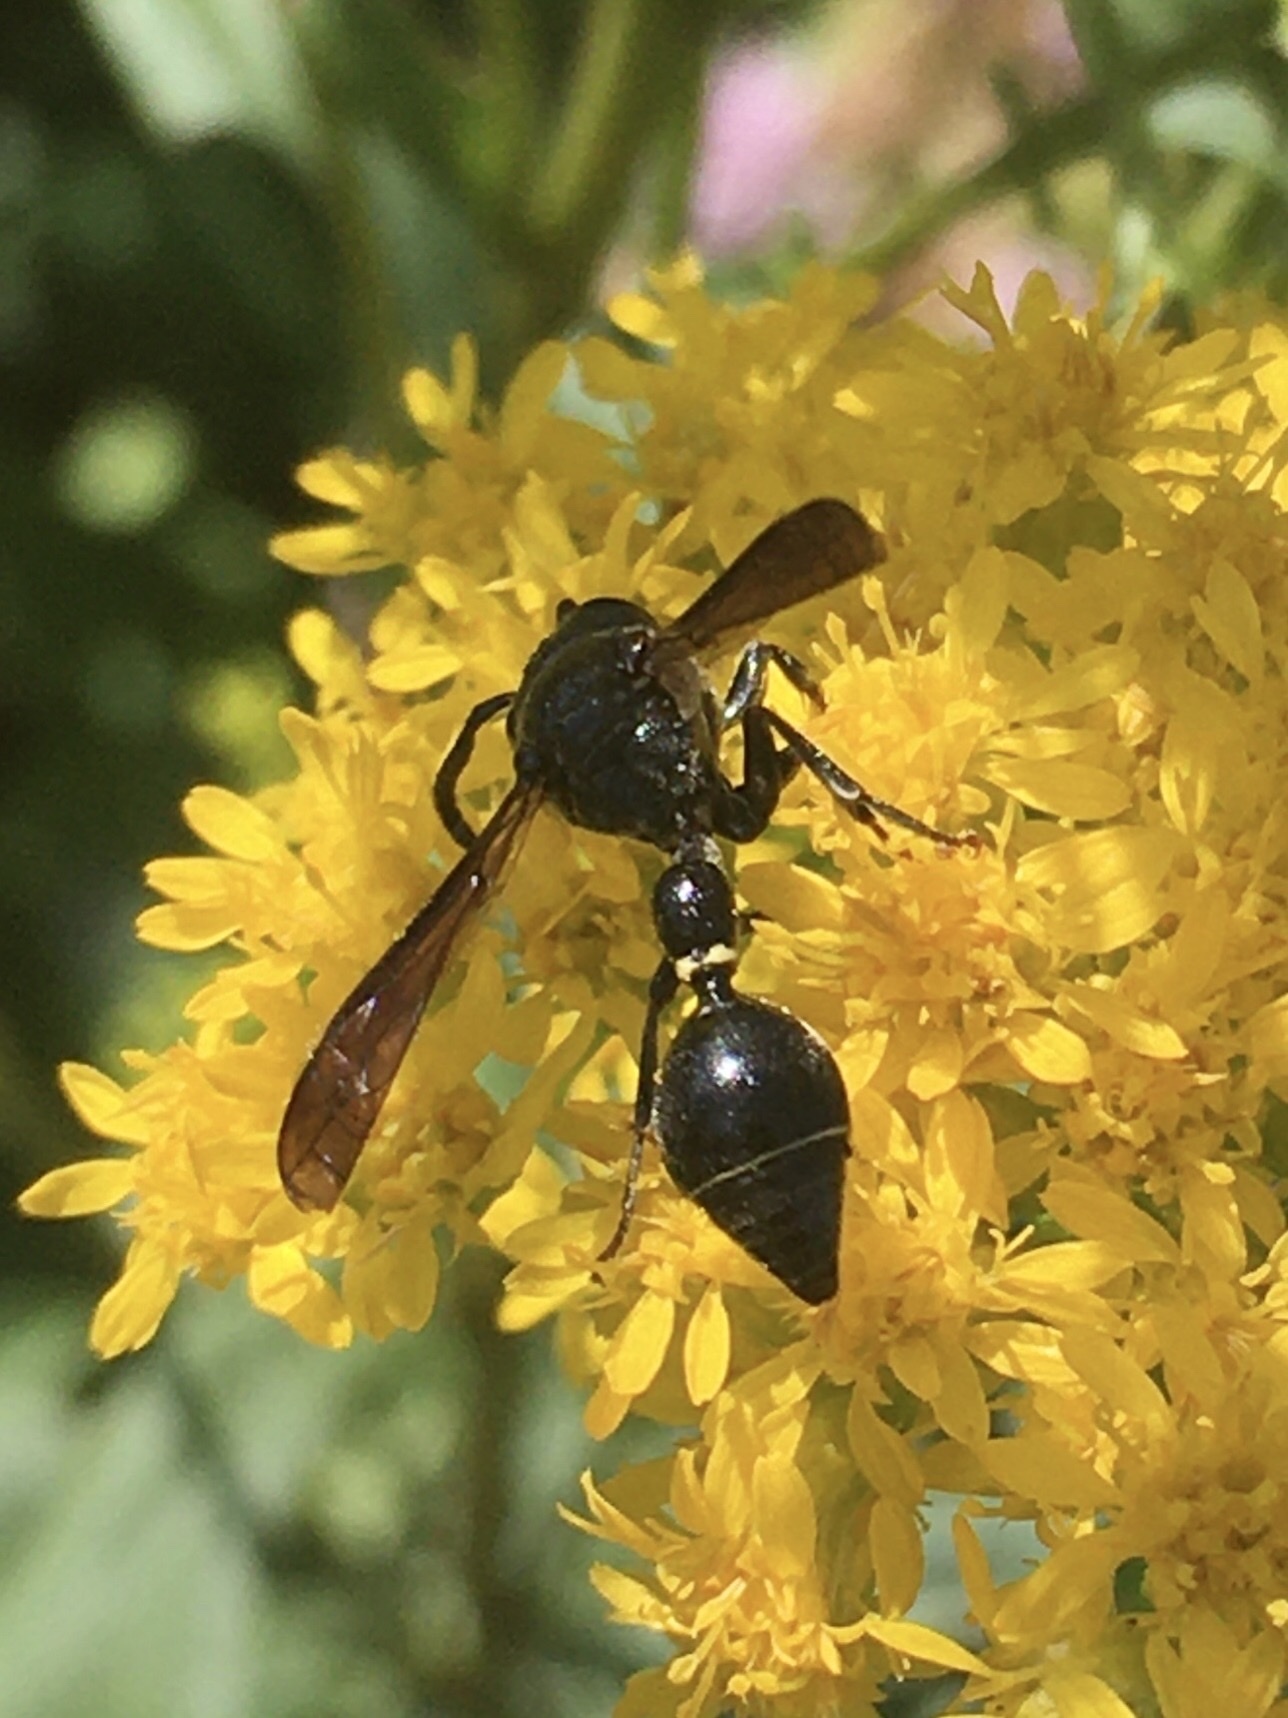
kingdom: Animalia
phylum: Arthropoda
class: Insecta
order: Hymenoptera
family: Eumenidae
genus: Zethus
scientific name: Zethus spinipes
